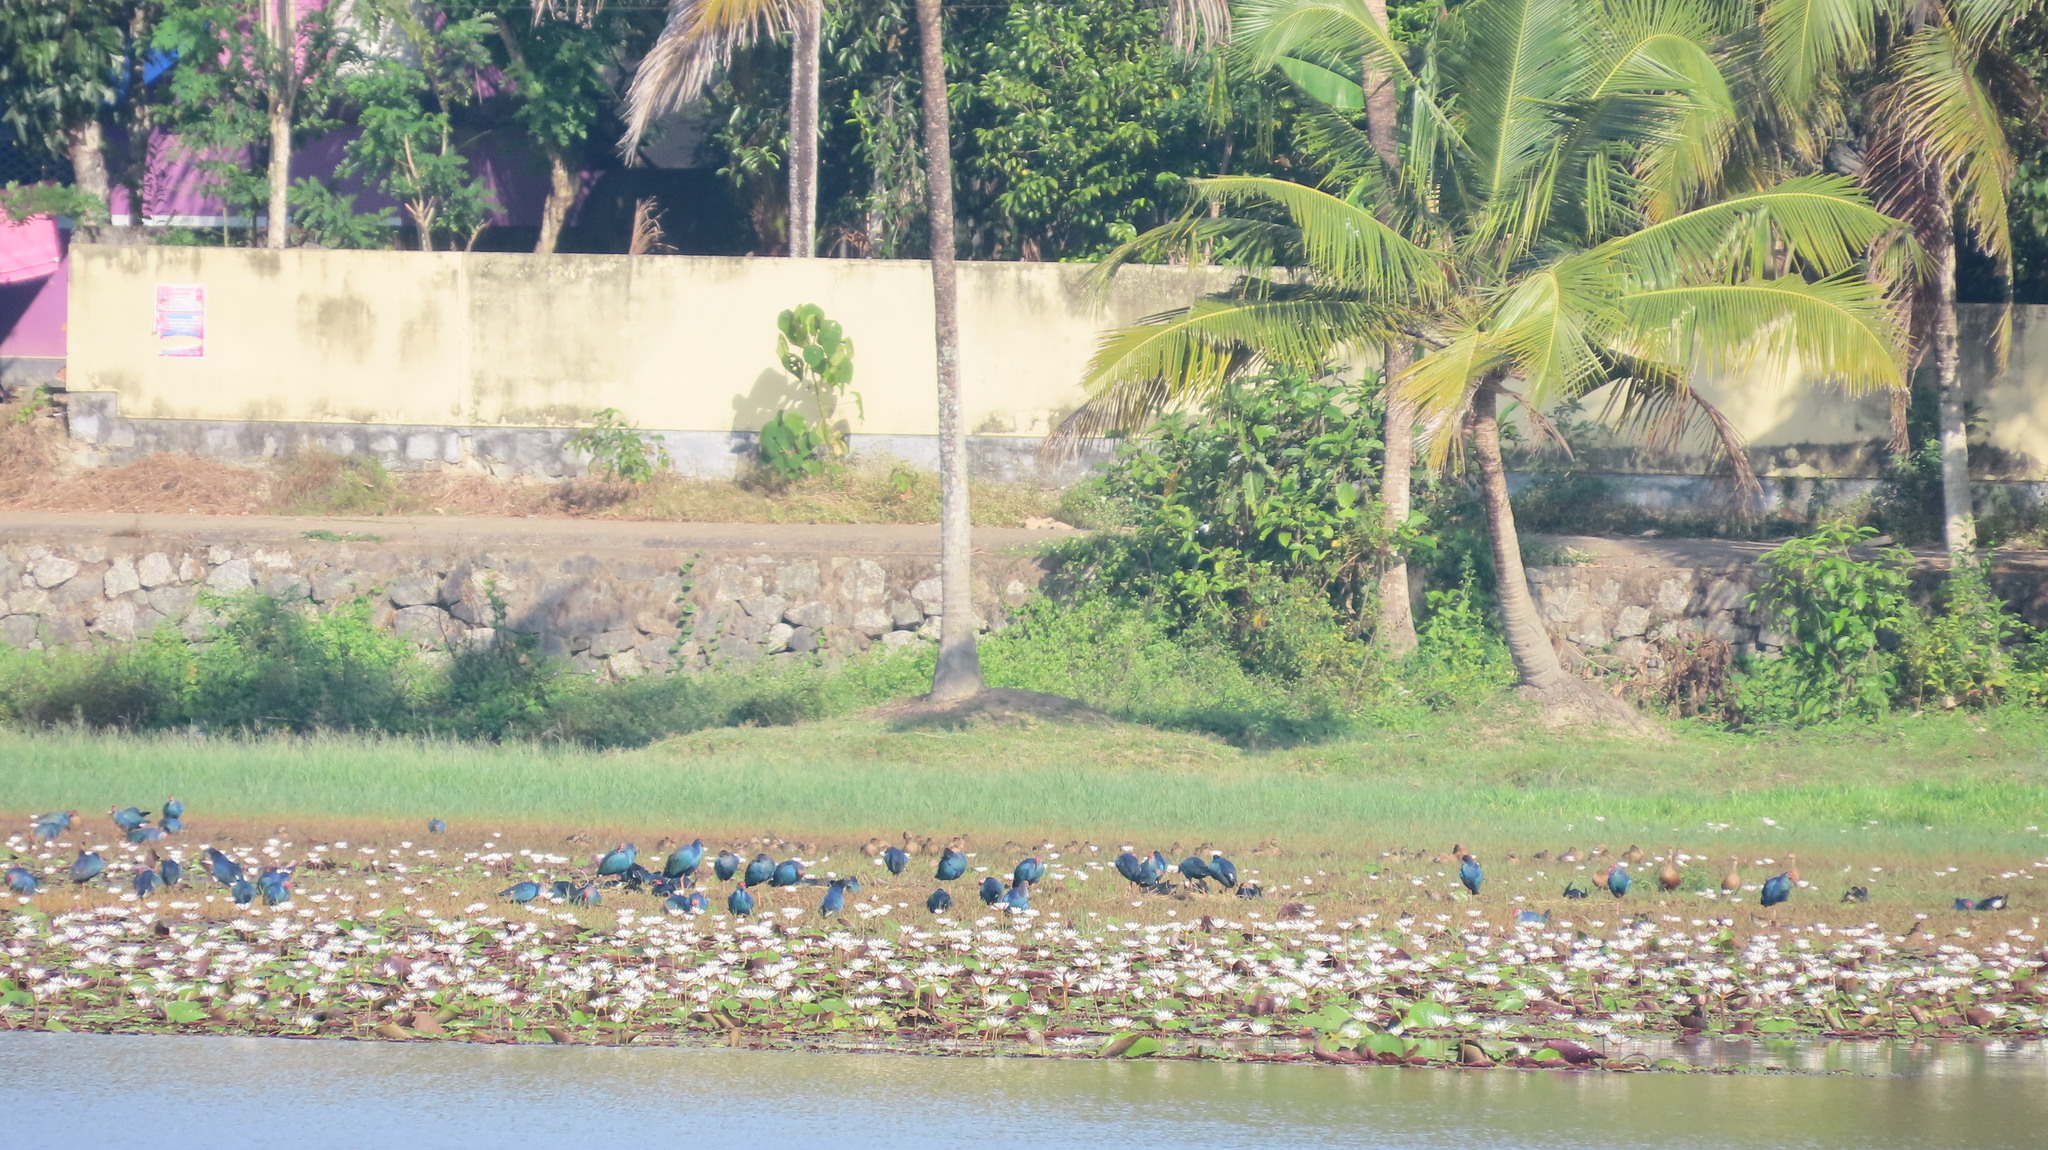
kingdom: Animalia
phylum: Chordata
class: Aves
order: Gruiformes
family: Rallidae
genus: Porphyrio
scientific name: Porphyrio porphyrio
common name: Purple swamphen
